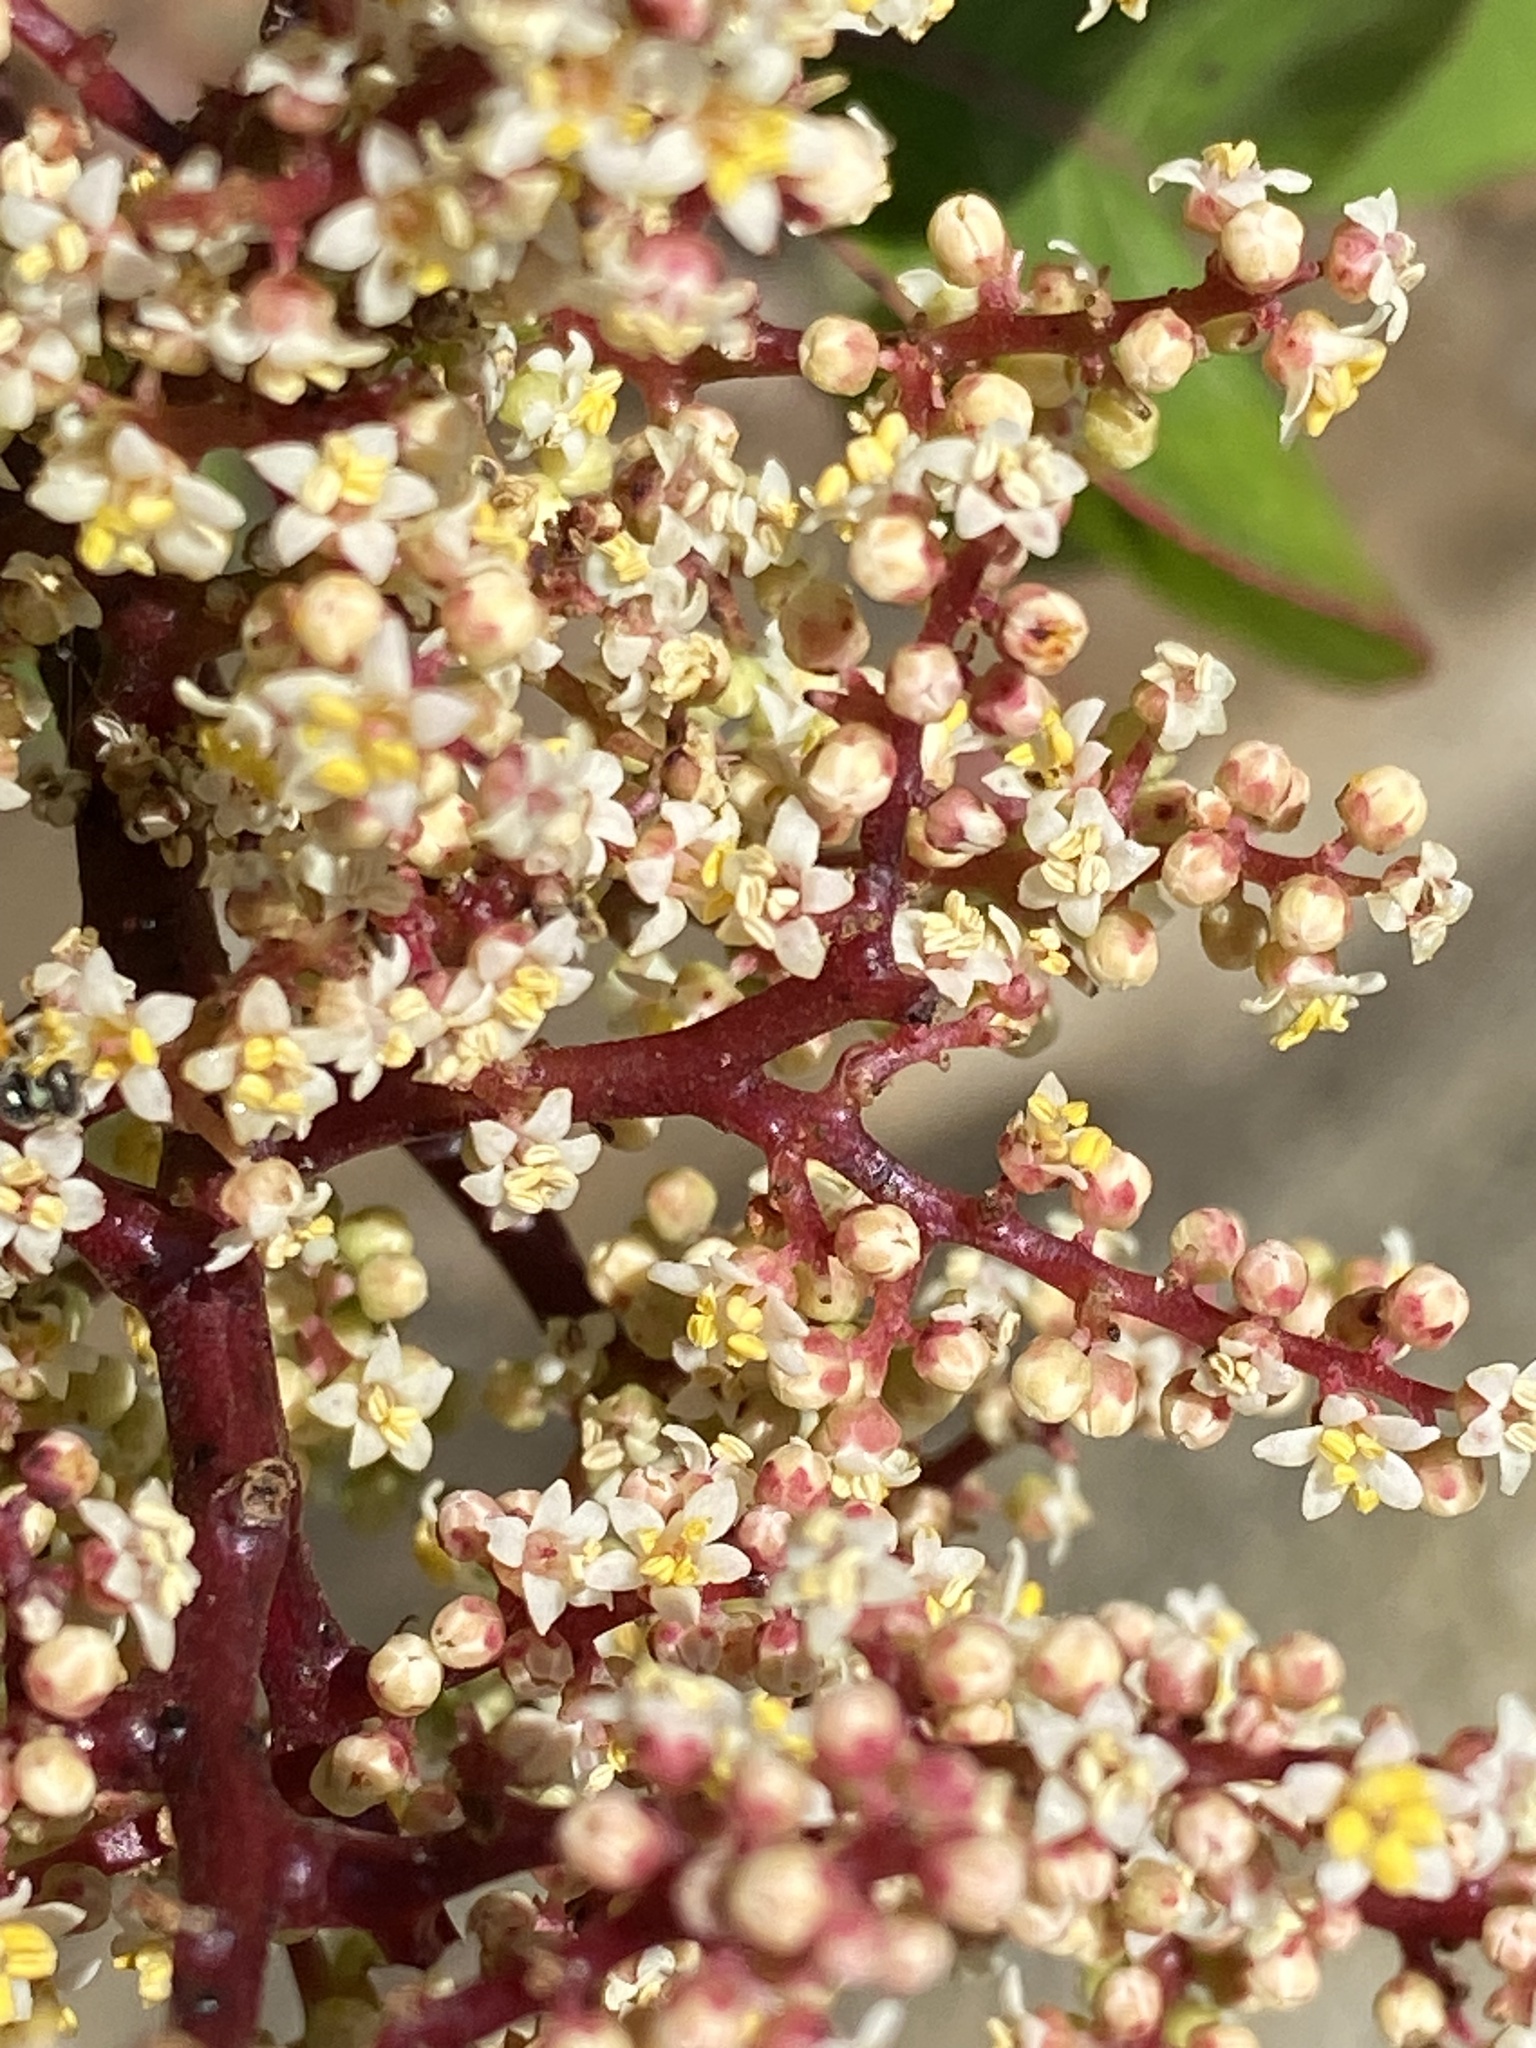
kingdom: Plantae
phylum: Tracheophyta
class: Magnoliopsida
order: Sapindales
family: Anacardiaceae
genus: Malosma
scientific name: Malosma laurina
